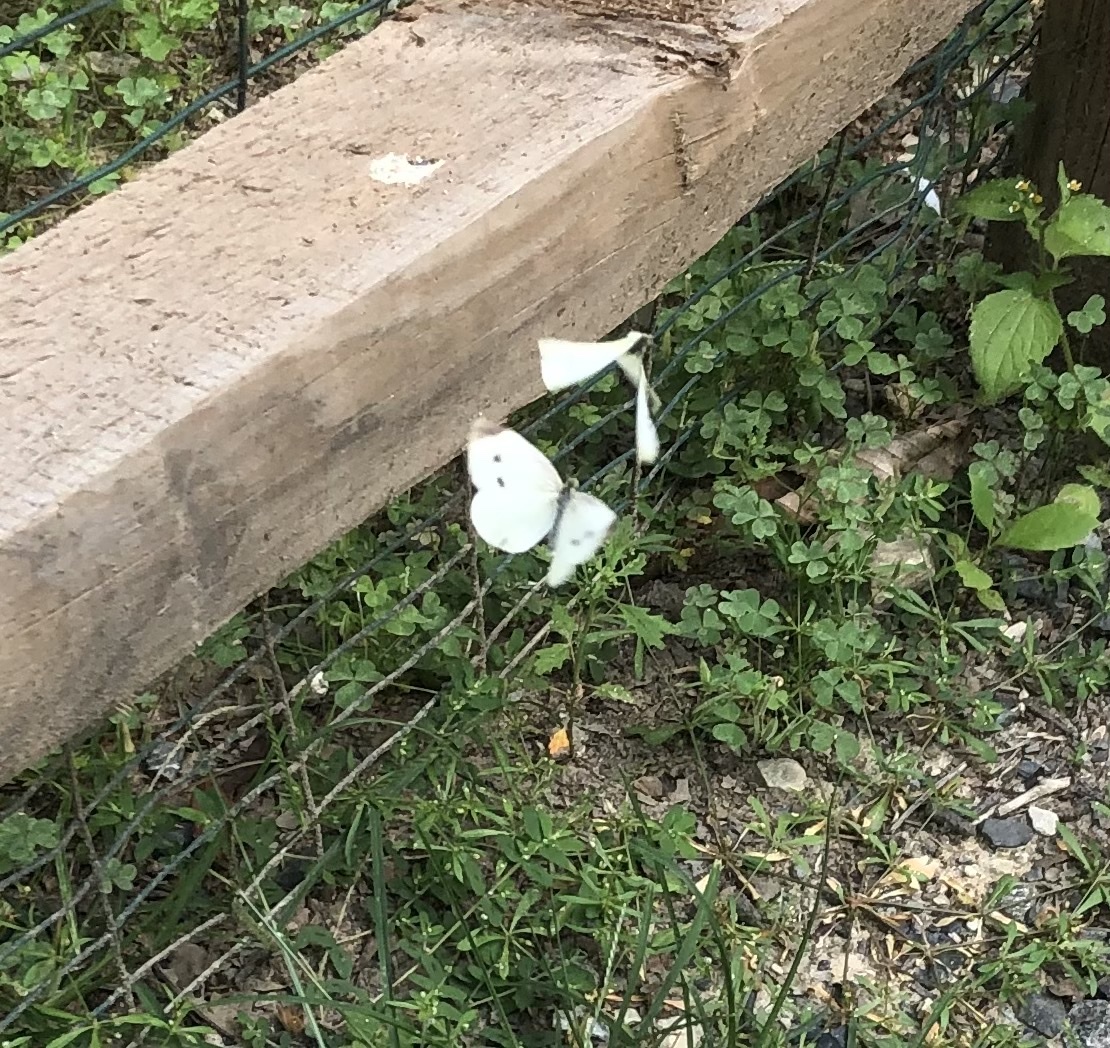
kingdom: Animalia
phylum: Arthropoda
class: Insecta
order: Lepidoptera
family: Pieridae
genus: Pieris
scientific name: Pieris rapae
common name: Small white
